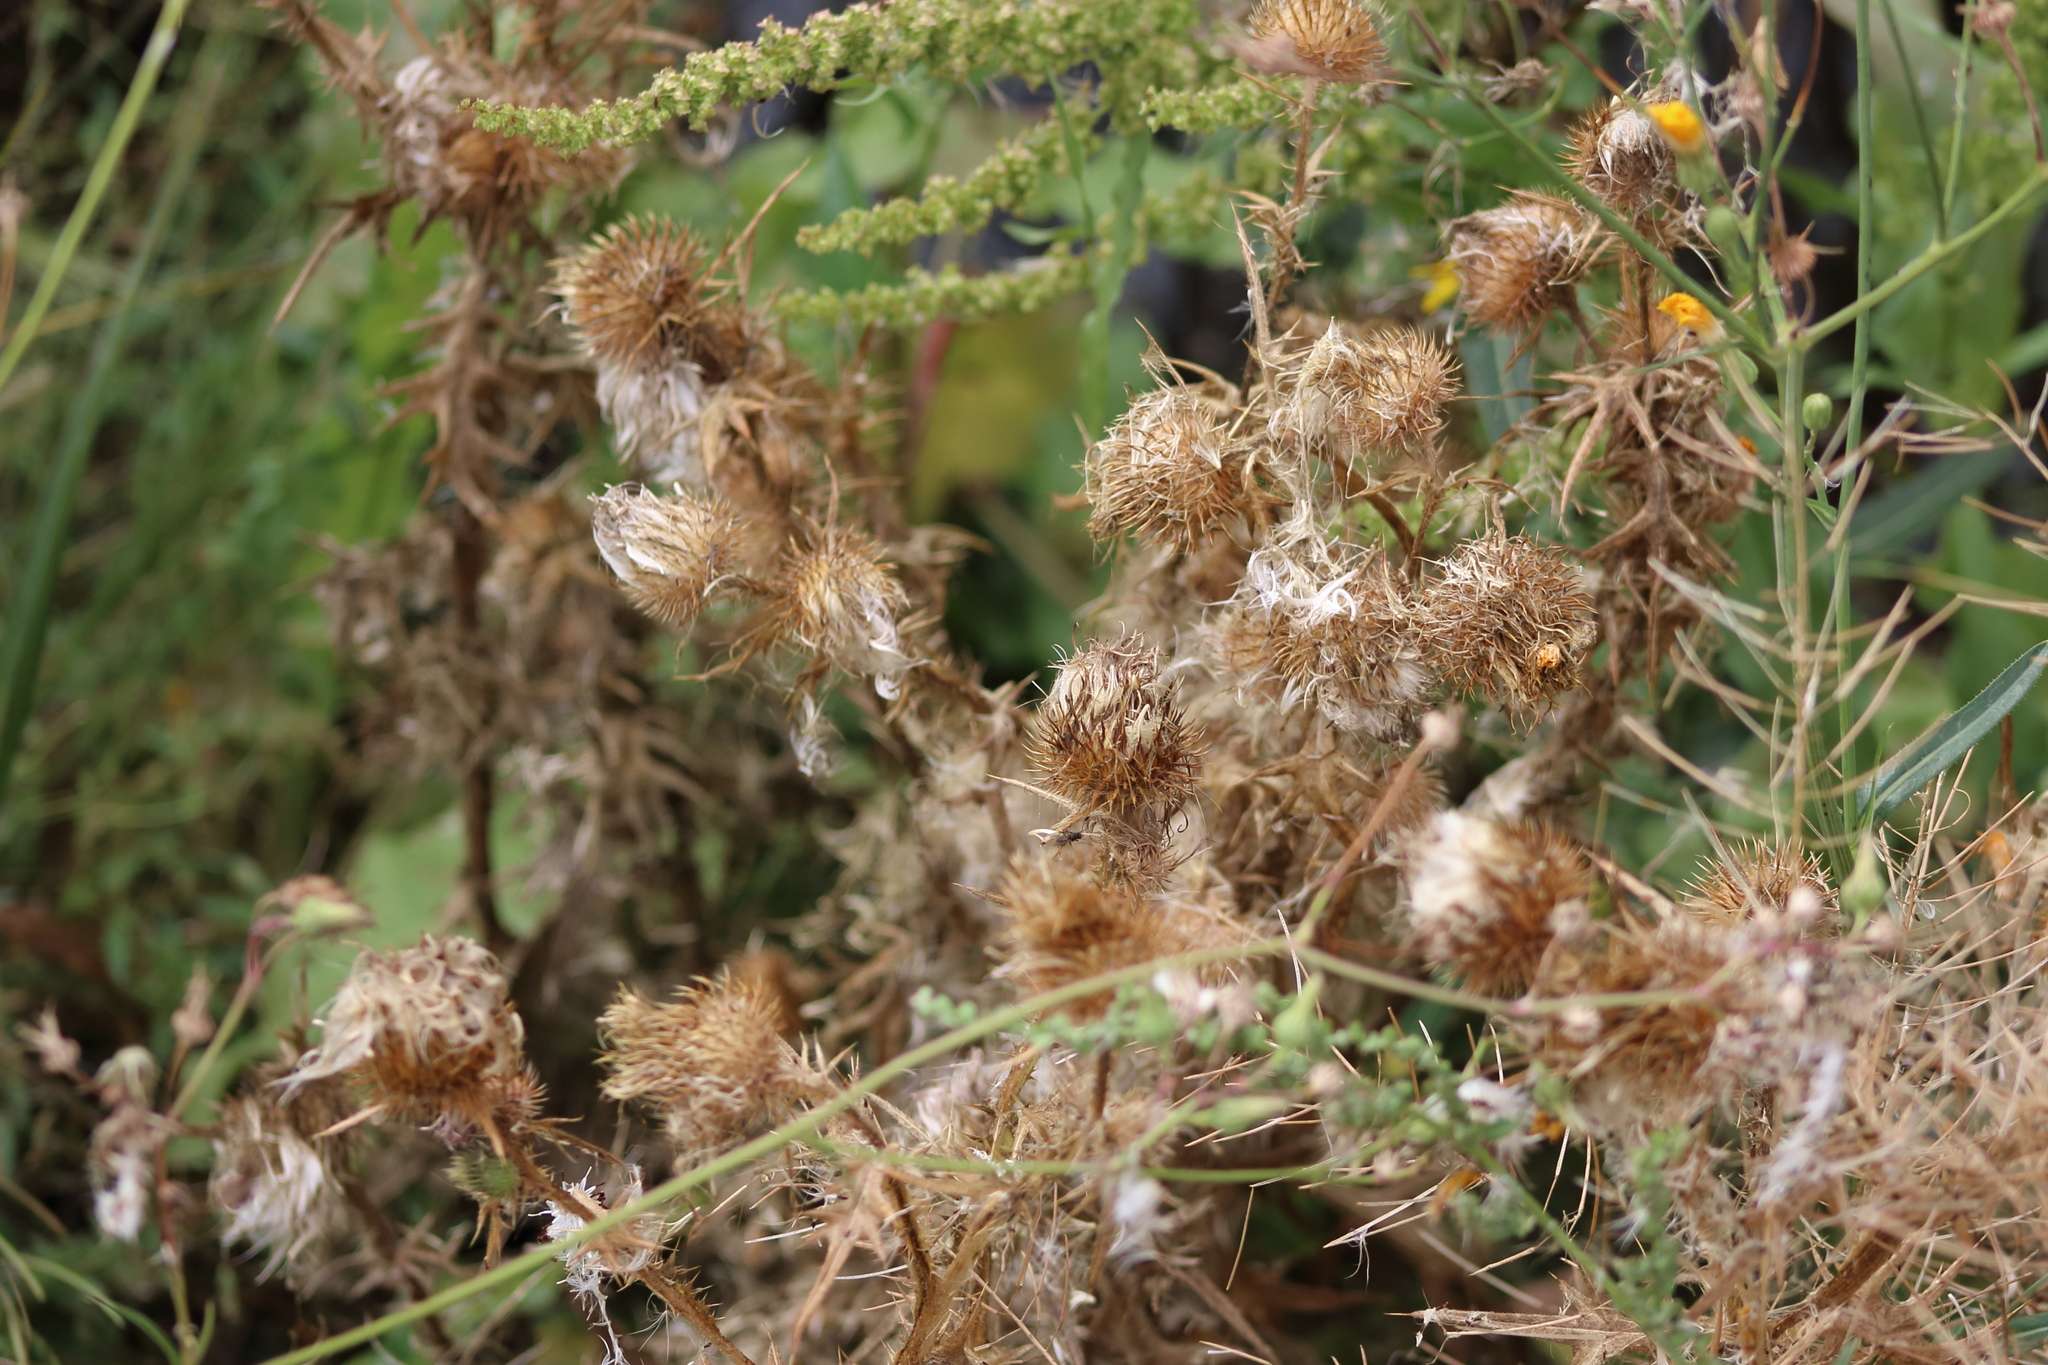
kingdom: Plantae
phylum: Tracheophyta
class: Magnoliopsida
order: Asterales
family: Asteraceae
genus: Cirsium
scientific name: Cirsium vulgare
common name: Bull thistle
